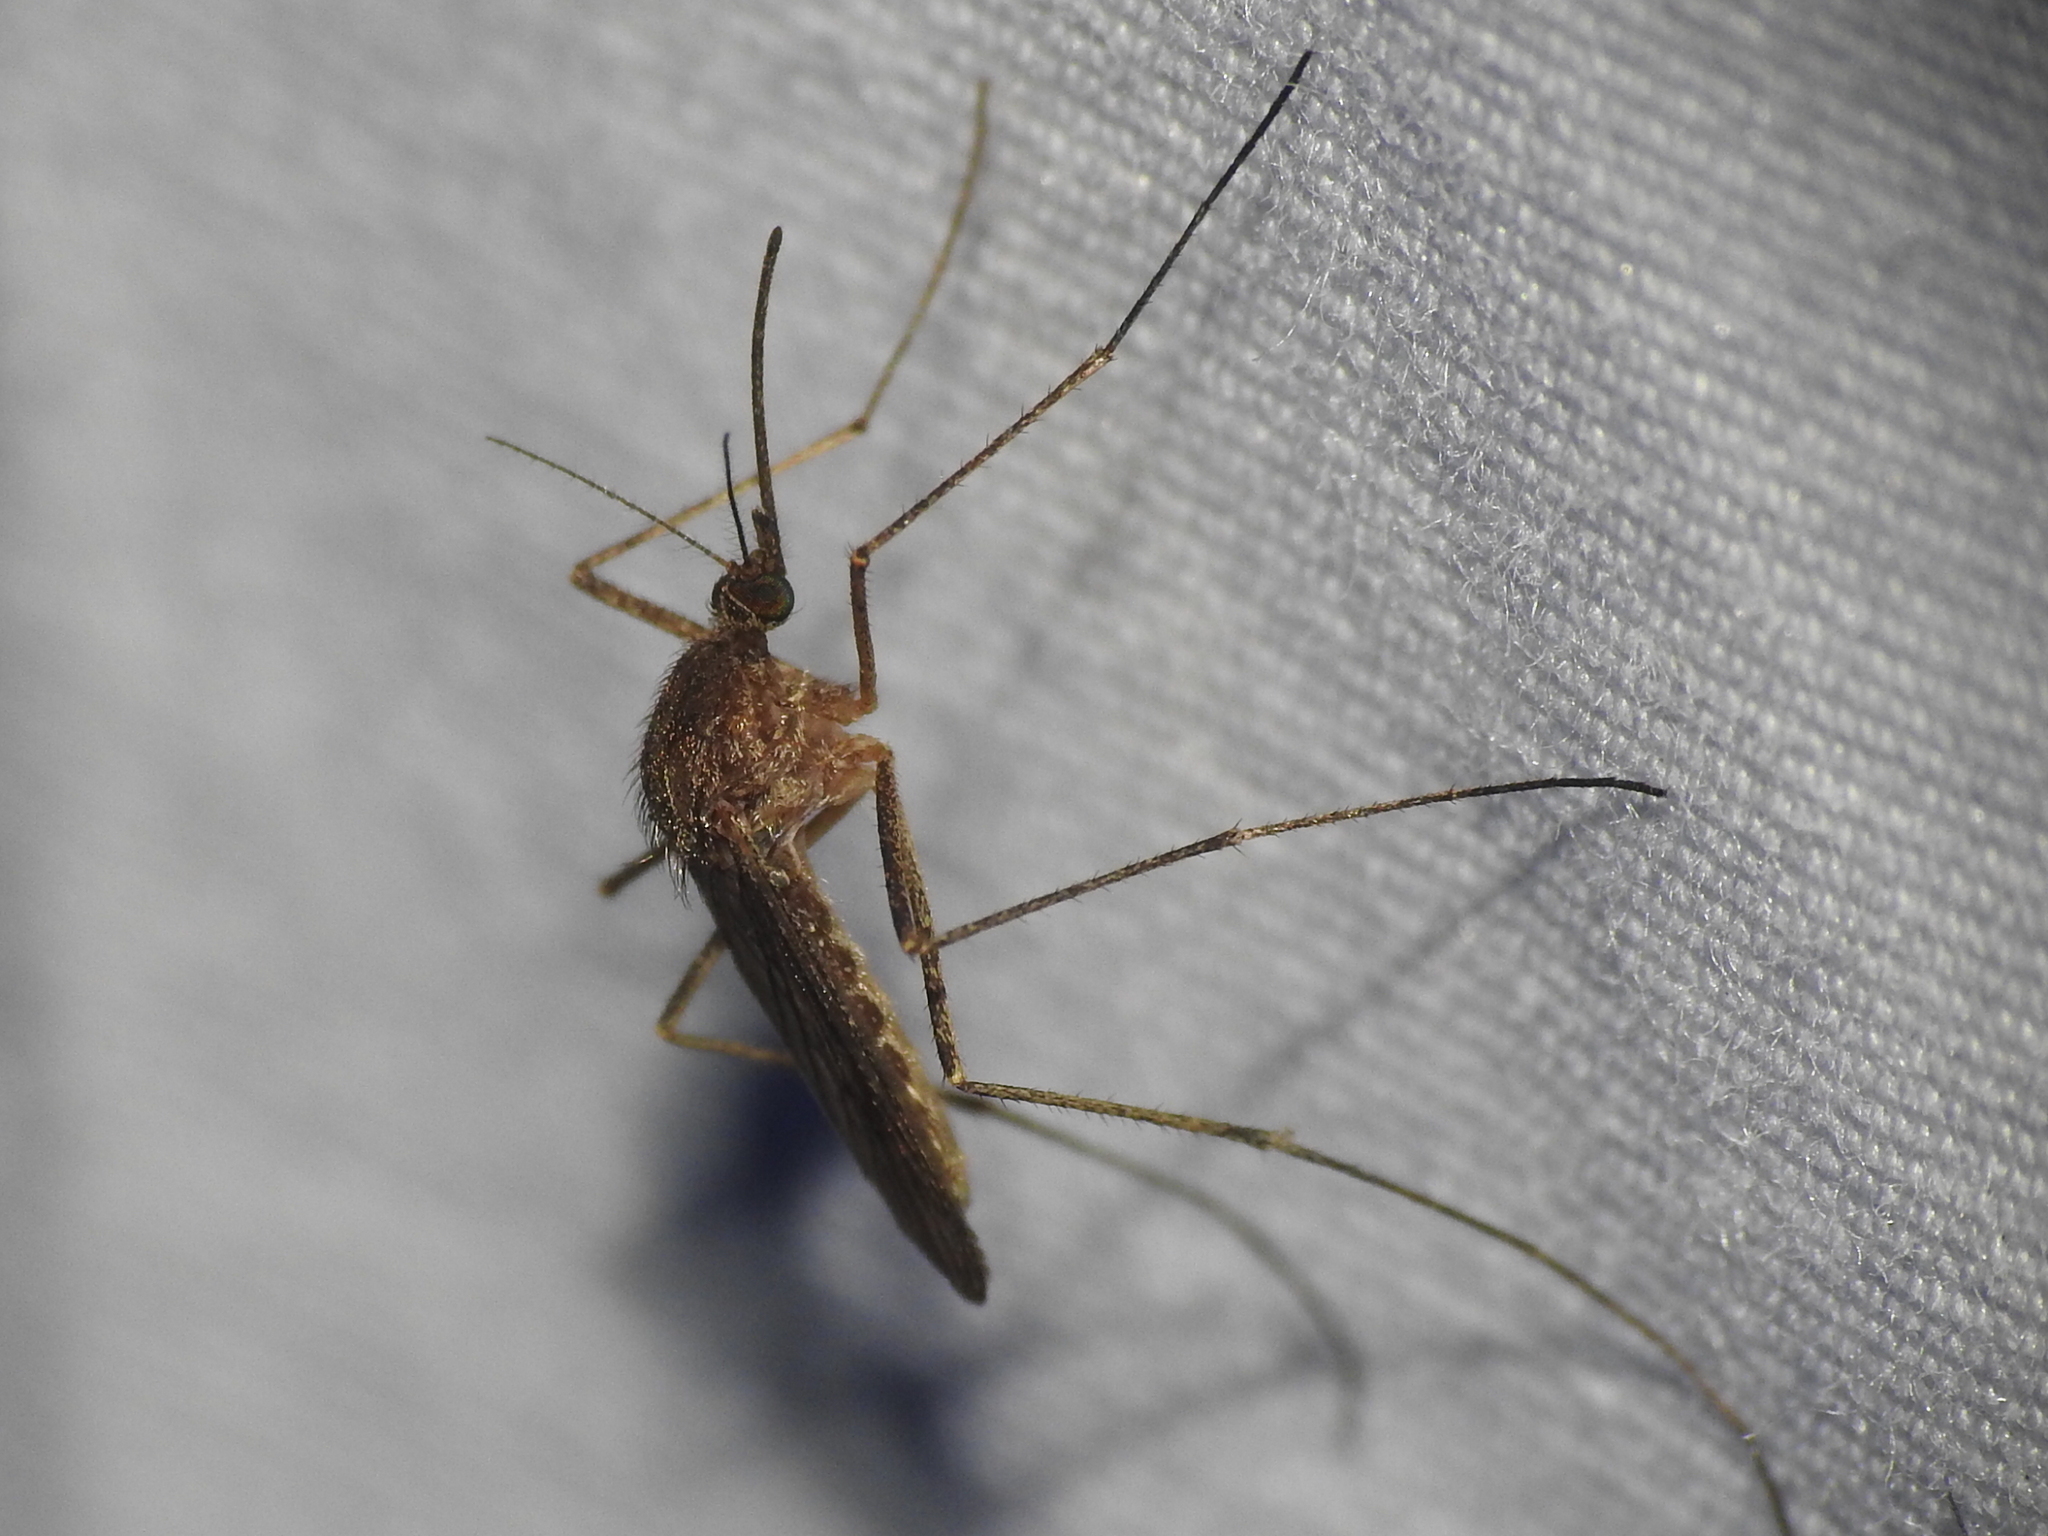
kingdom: Animalia
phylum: Arthropoda
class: Insecta
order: Diptera
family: Culicidae
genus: Culiseta
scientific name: Culiseta inornata
